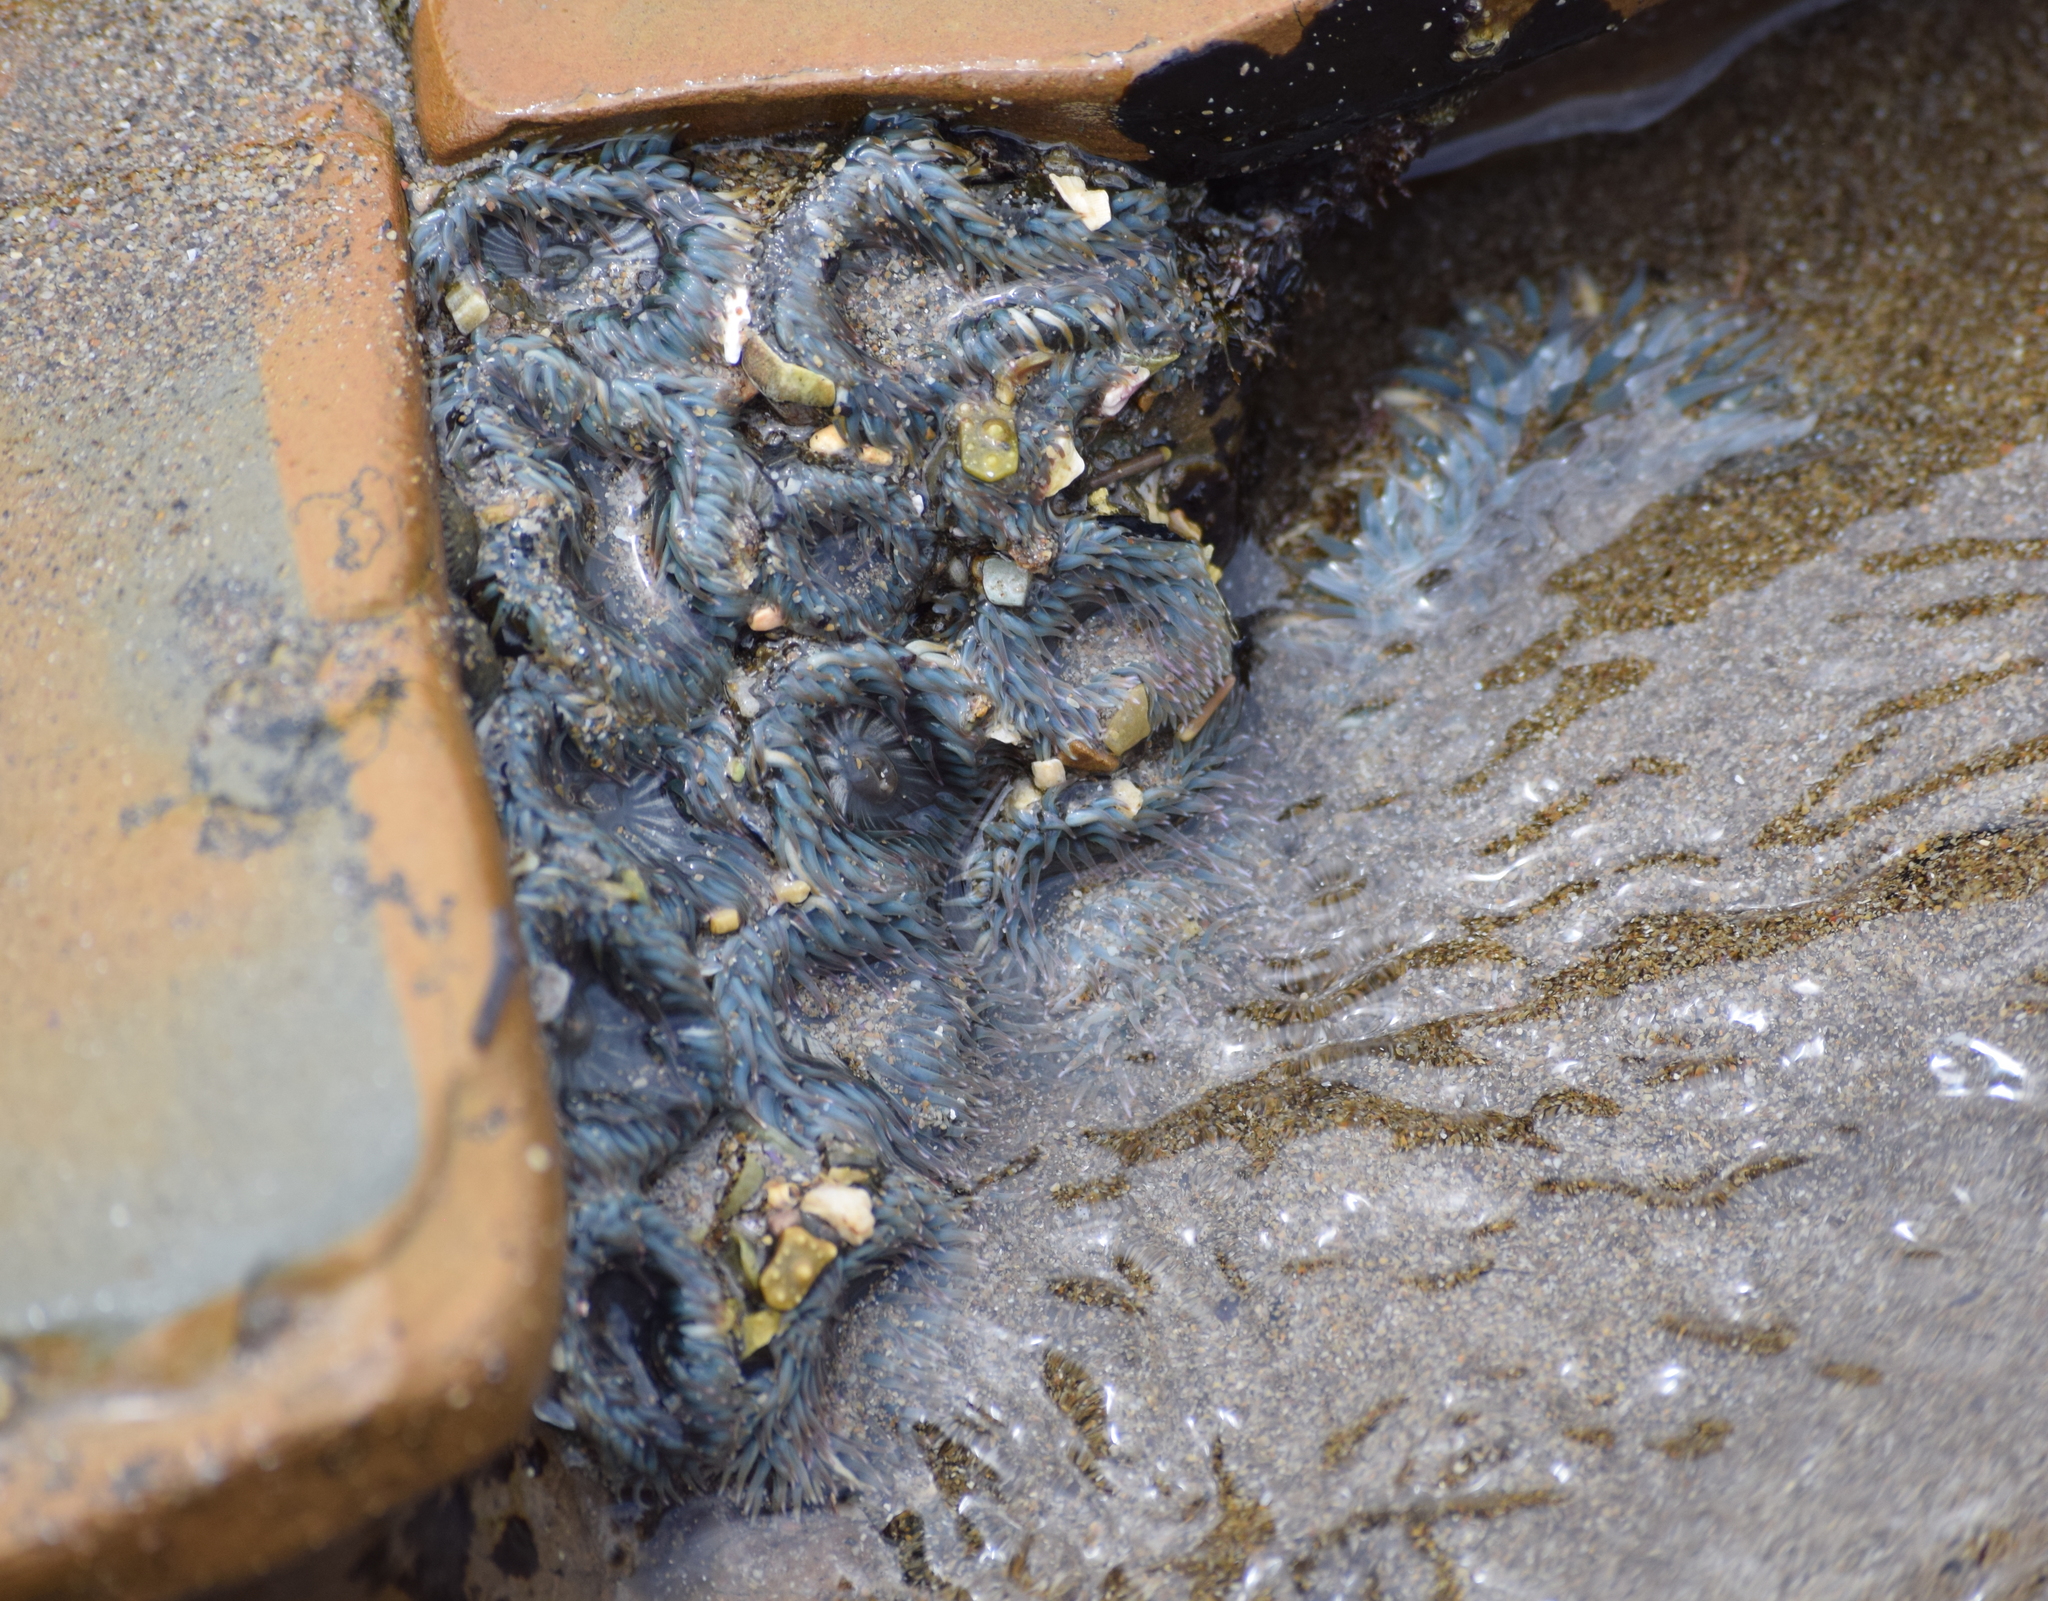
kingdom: Animalia
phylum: Cnidaria
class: Anthozoa
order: Actiniaria
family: Actiniidae
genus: Anthopleura
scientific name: Anthopleura elegantissima
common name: Clonal anemone
